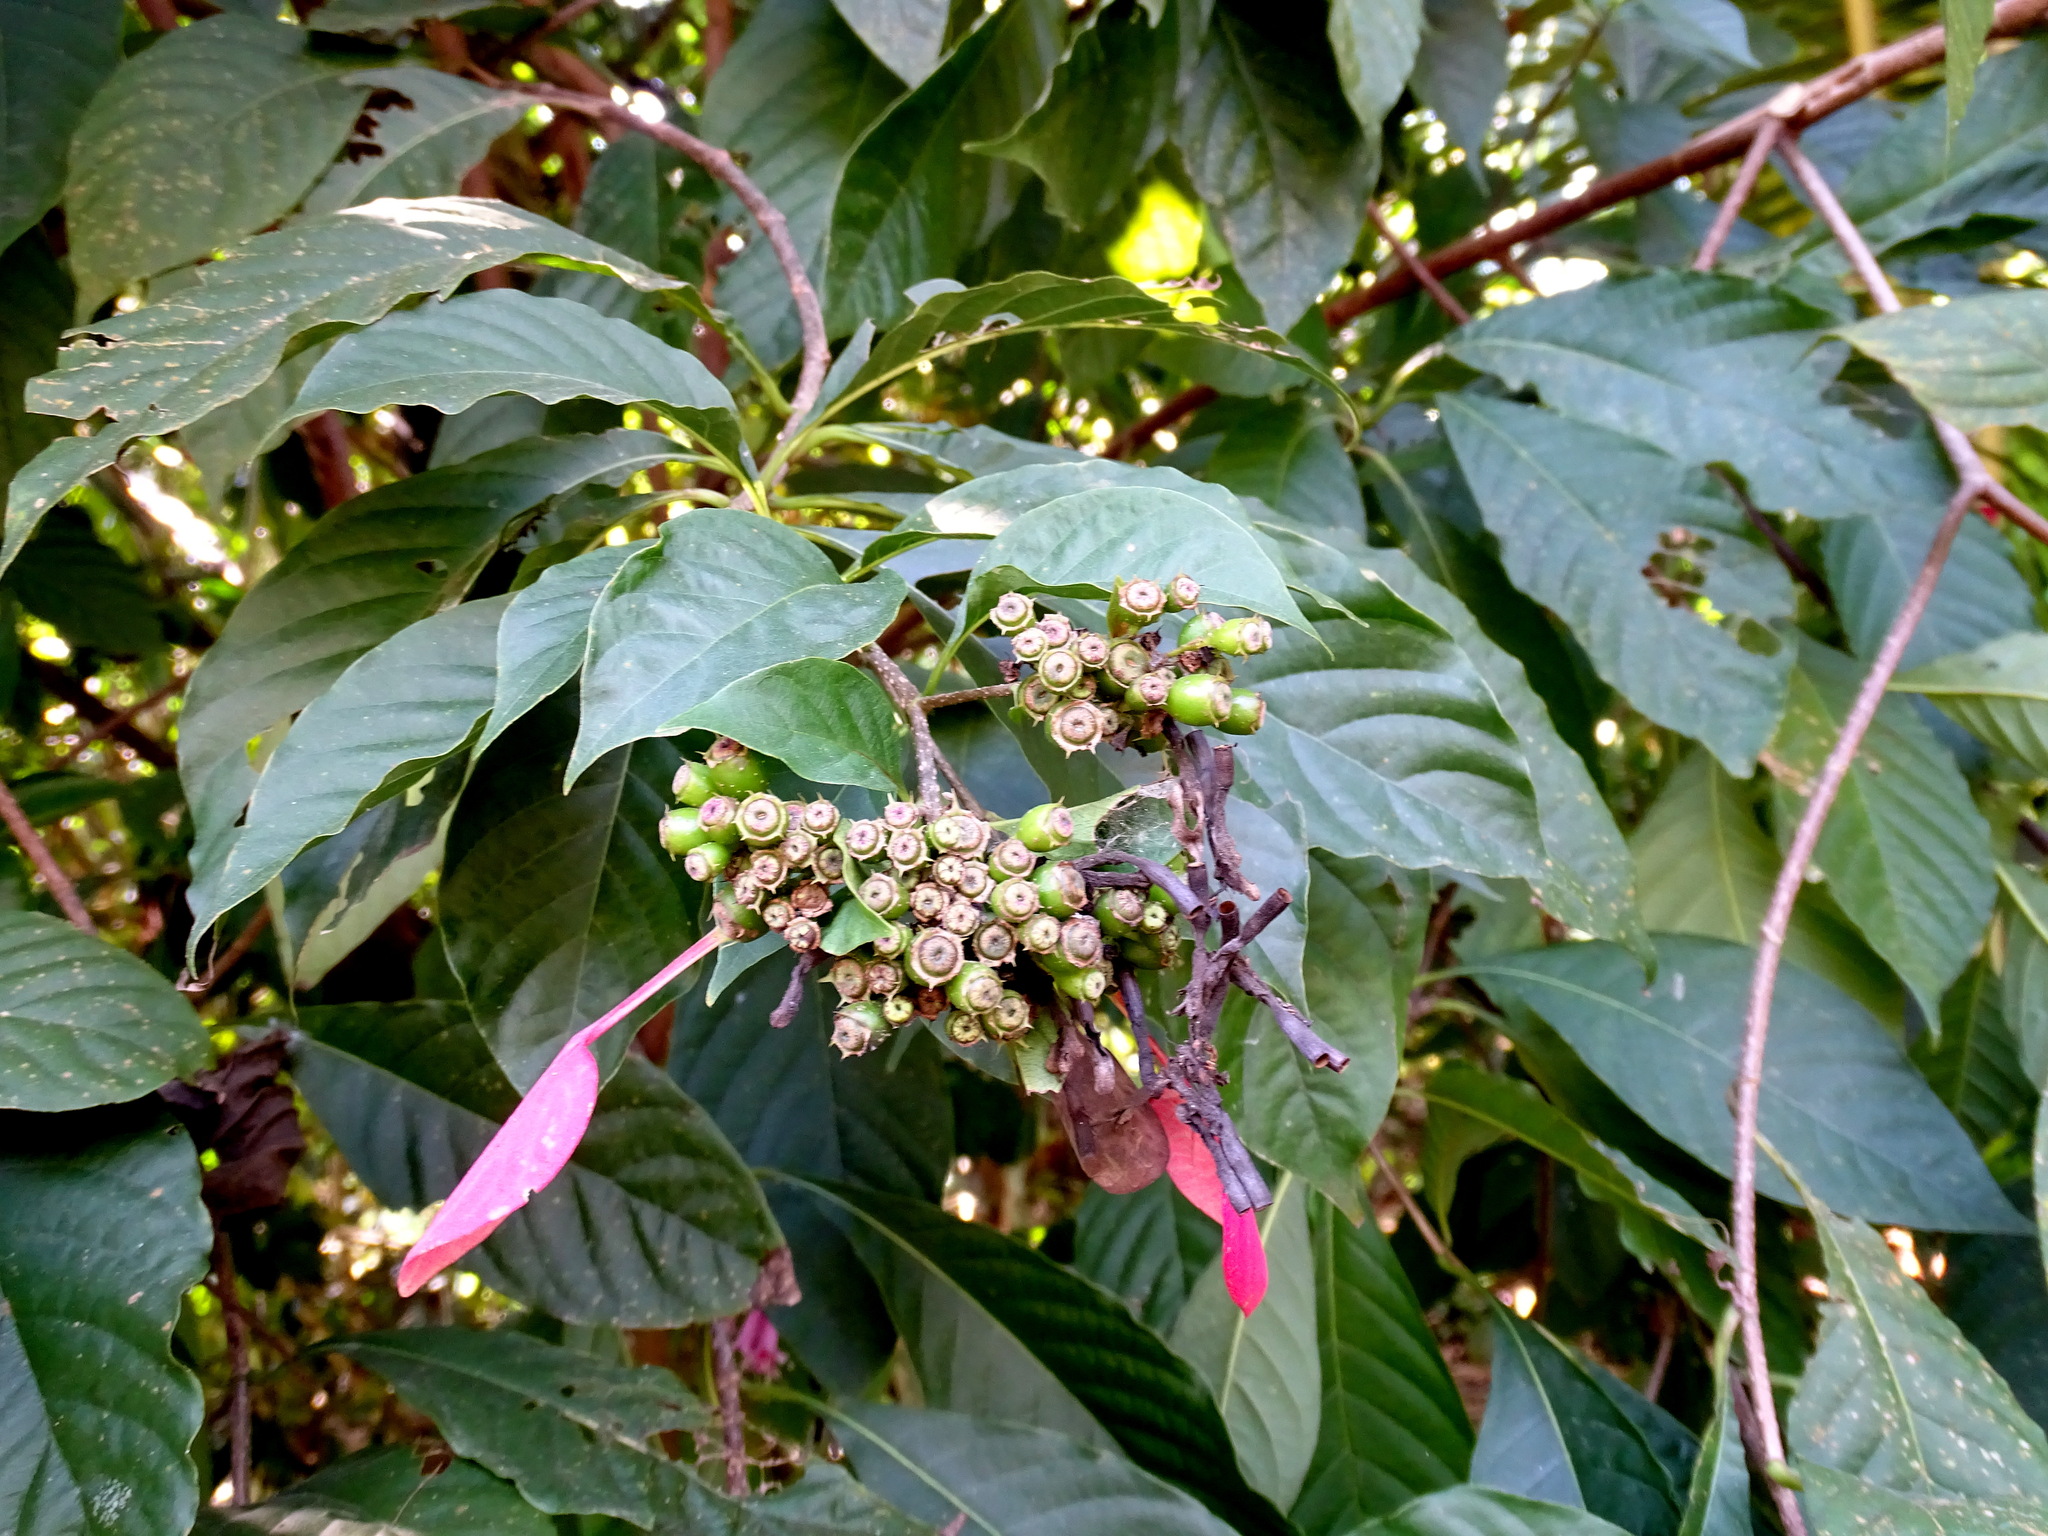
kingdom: Plantae
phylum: Tracheophyta
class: Magnoliopsida
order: Gentianales
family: Rubiaceae
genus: Pogonopus
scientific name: Pogonopus exsertus
